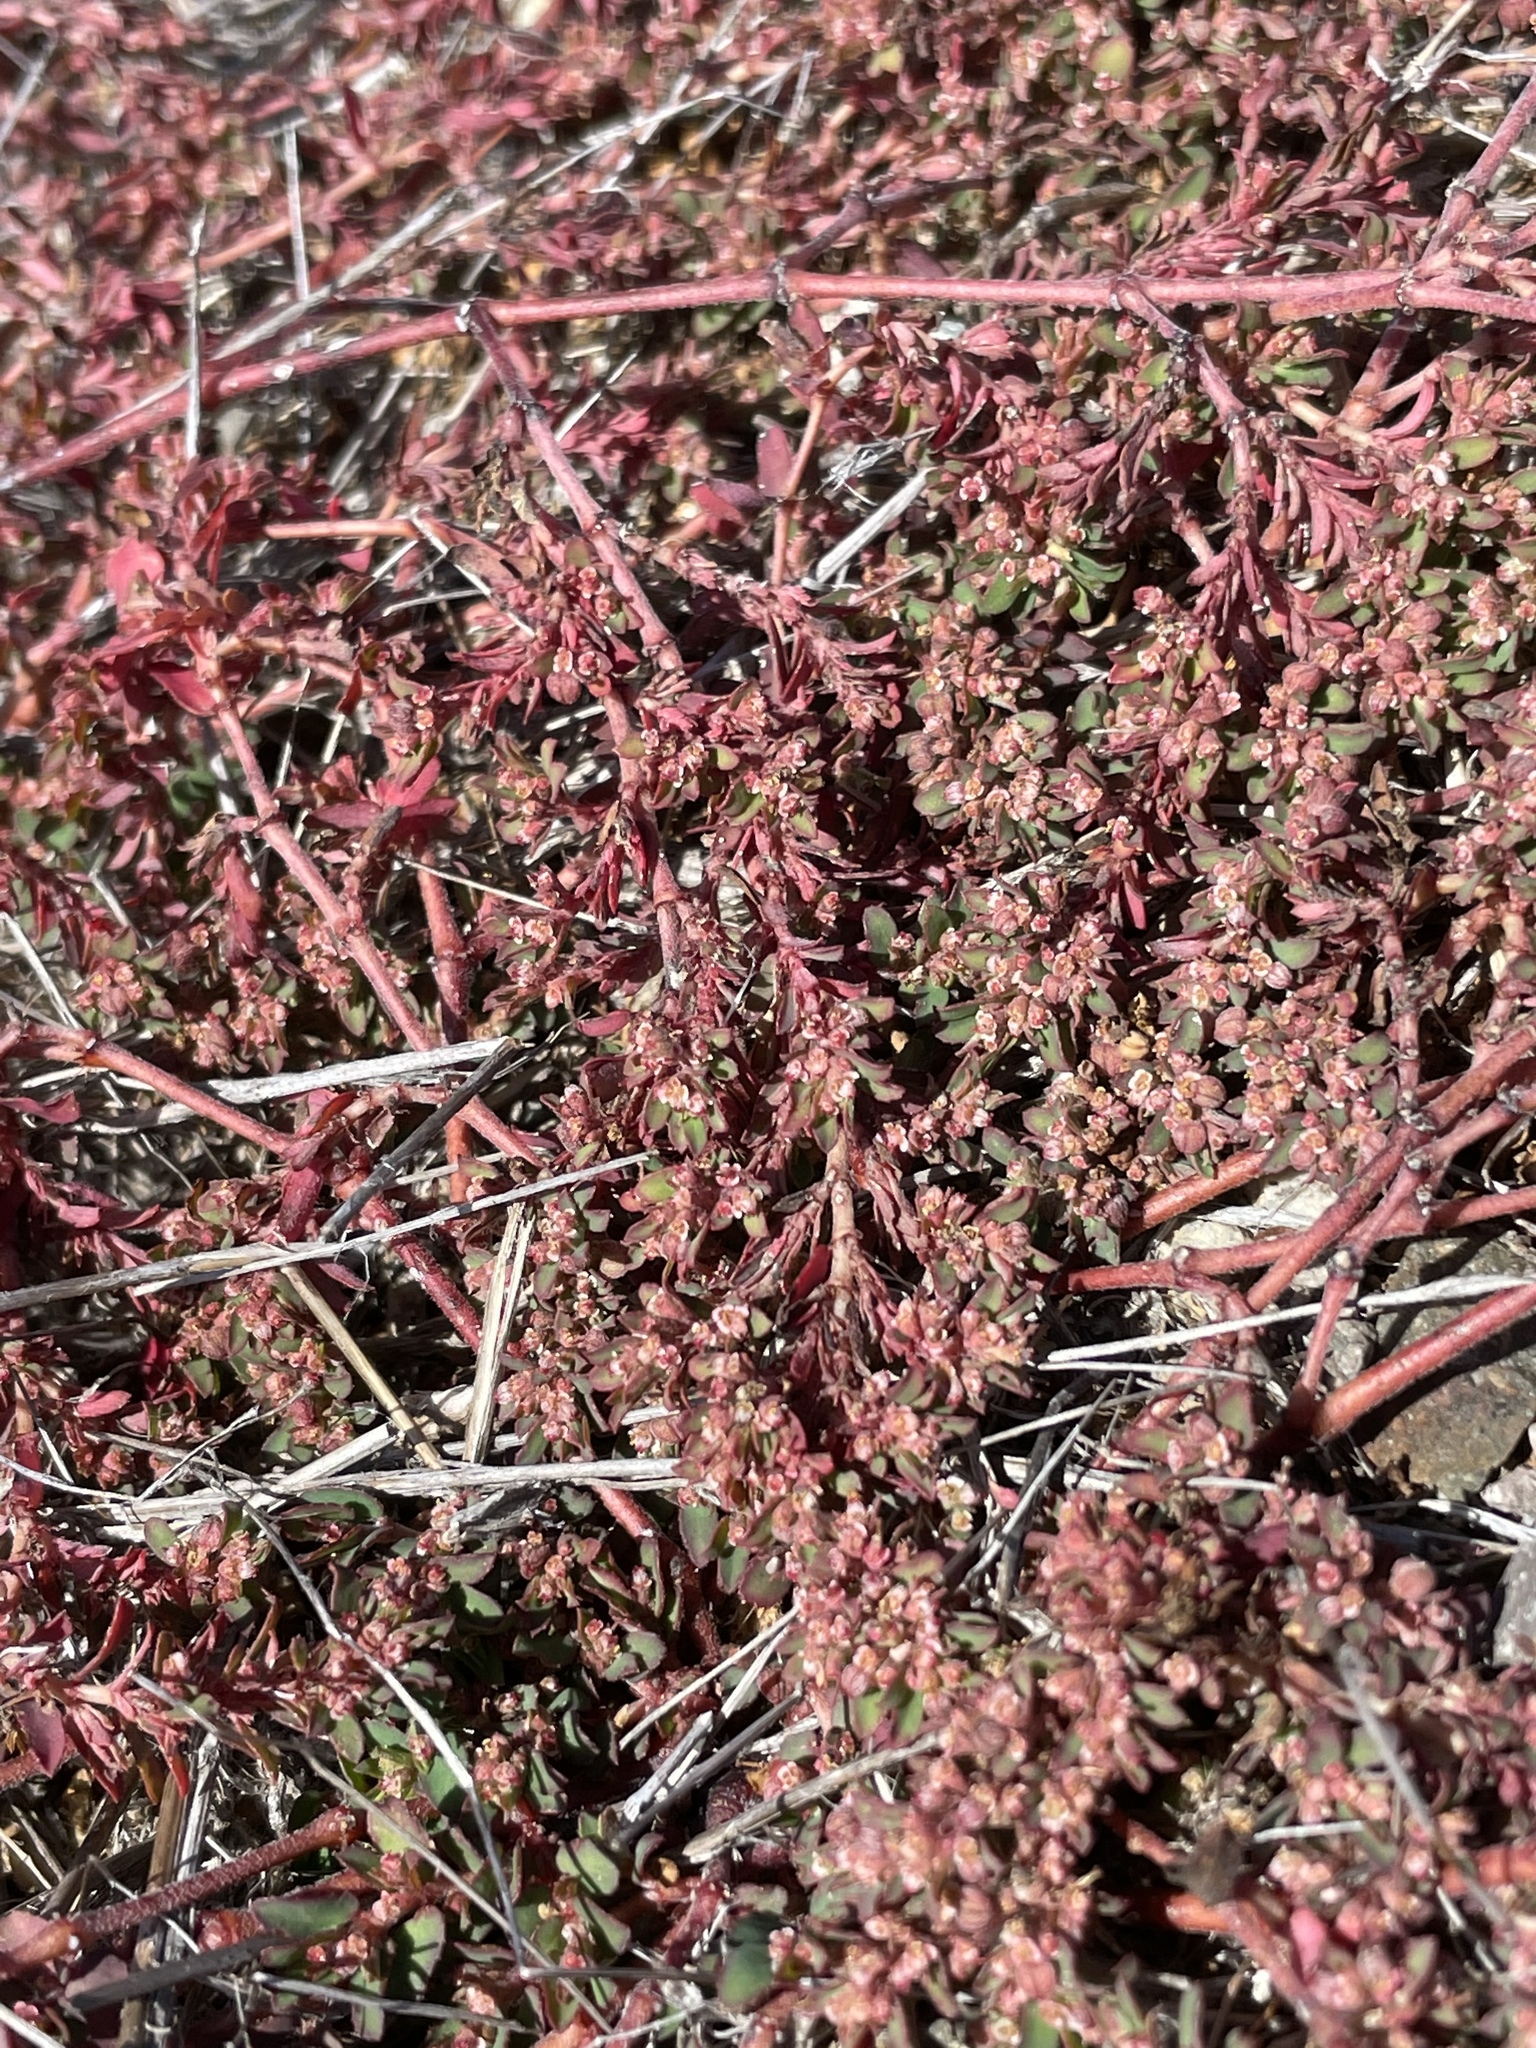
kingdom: Plantae
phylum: Tracheophyta
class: Magnoliopsida
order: Malpighiales
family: Euphorbiaceae
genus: Euphorbia
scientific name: Euphorbia maculata
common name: Spotted spurge
